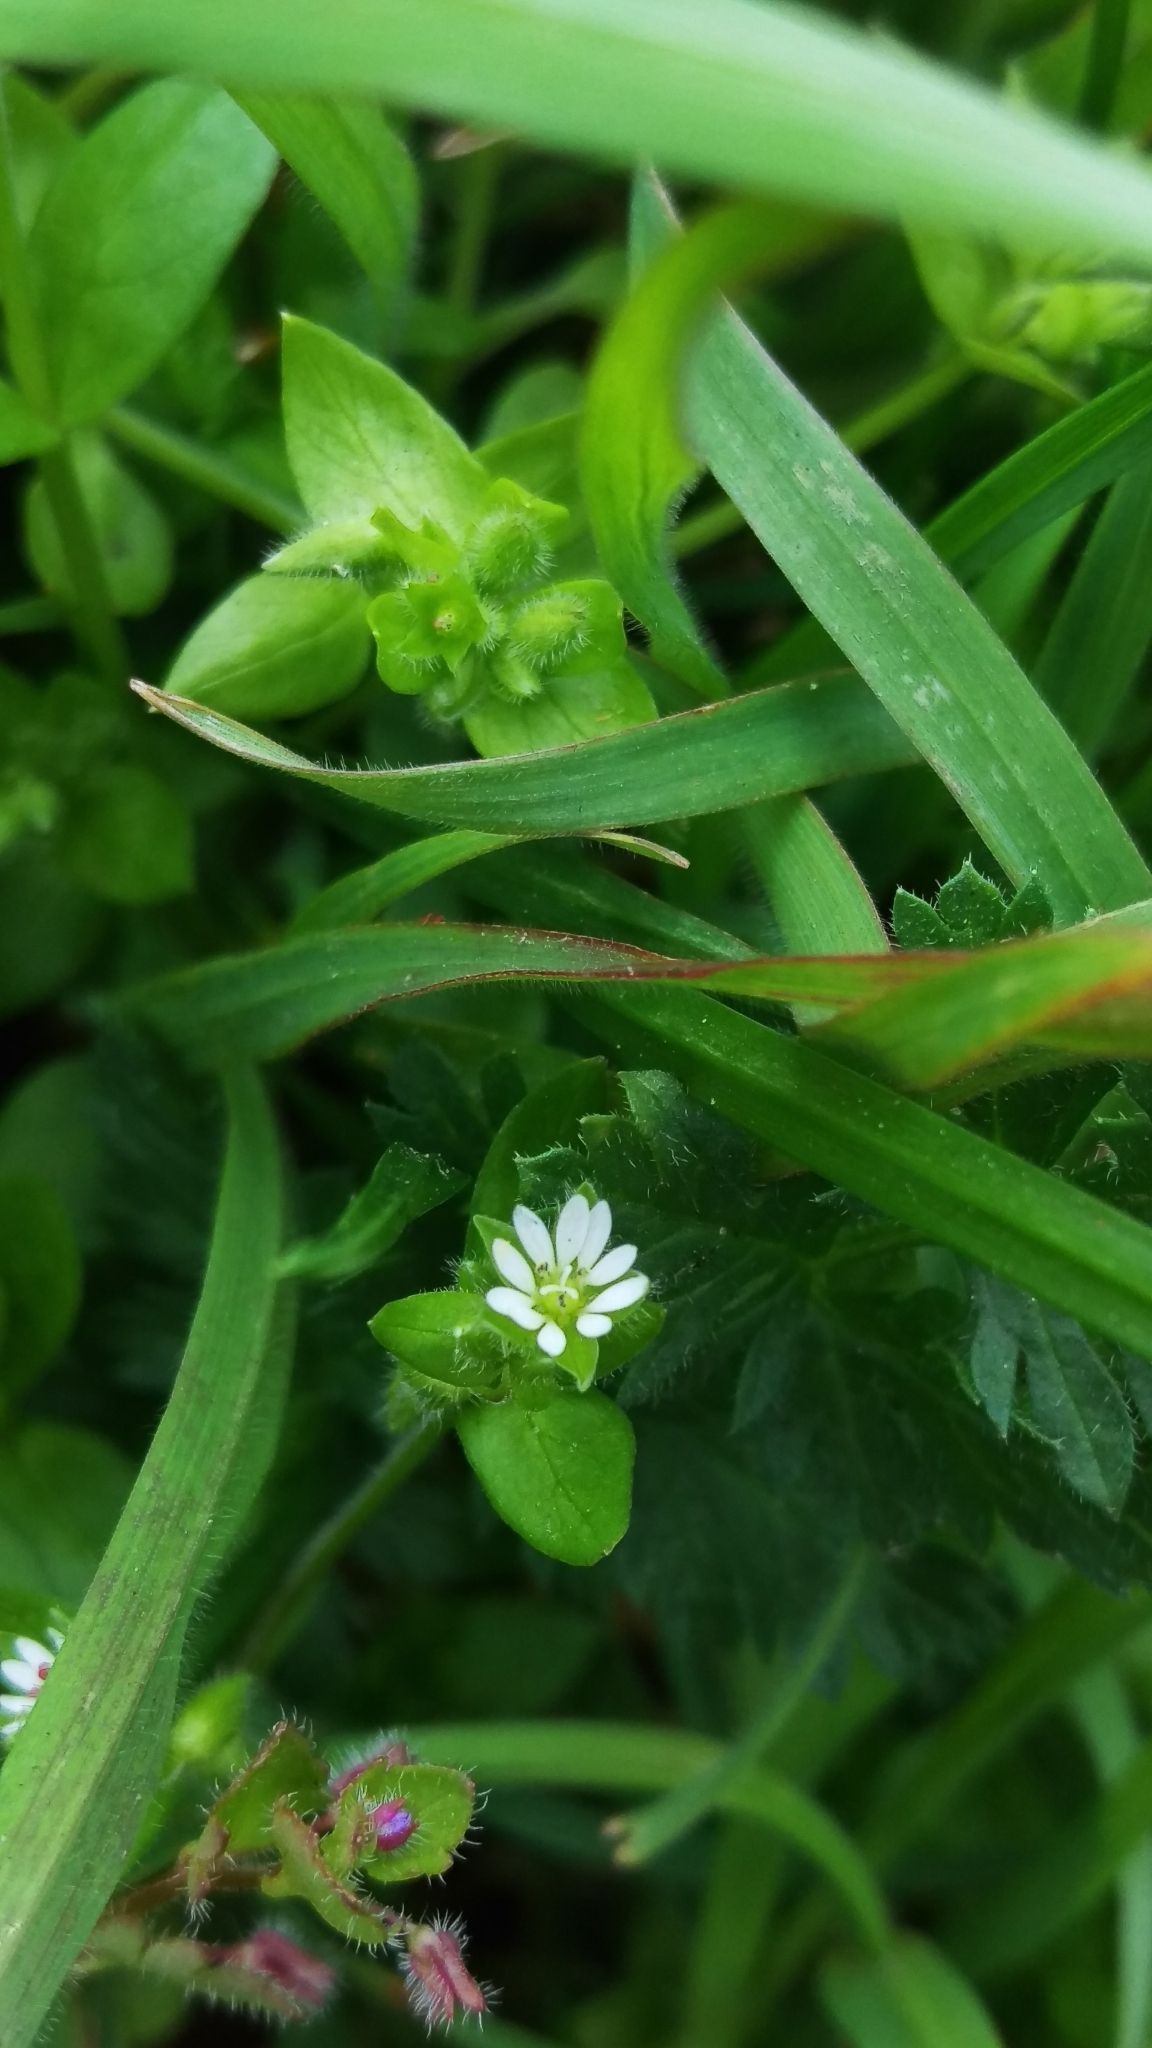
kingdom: Plantae
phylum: Tracheophyta
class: Magnoliopsida
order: Caryophyllales
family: Caryophyllaceae
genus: Stellaria
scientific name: Stellaria media
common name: Common chickweed
